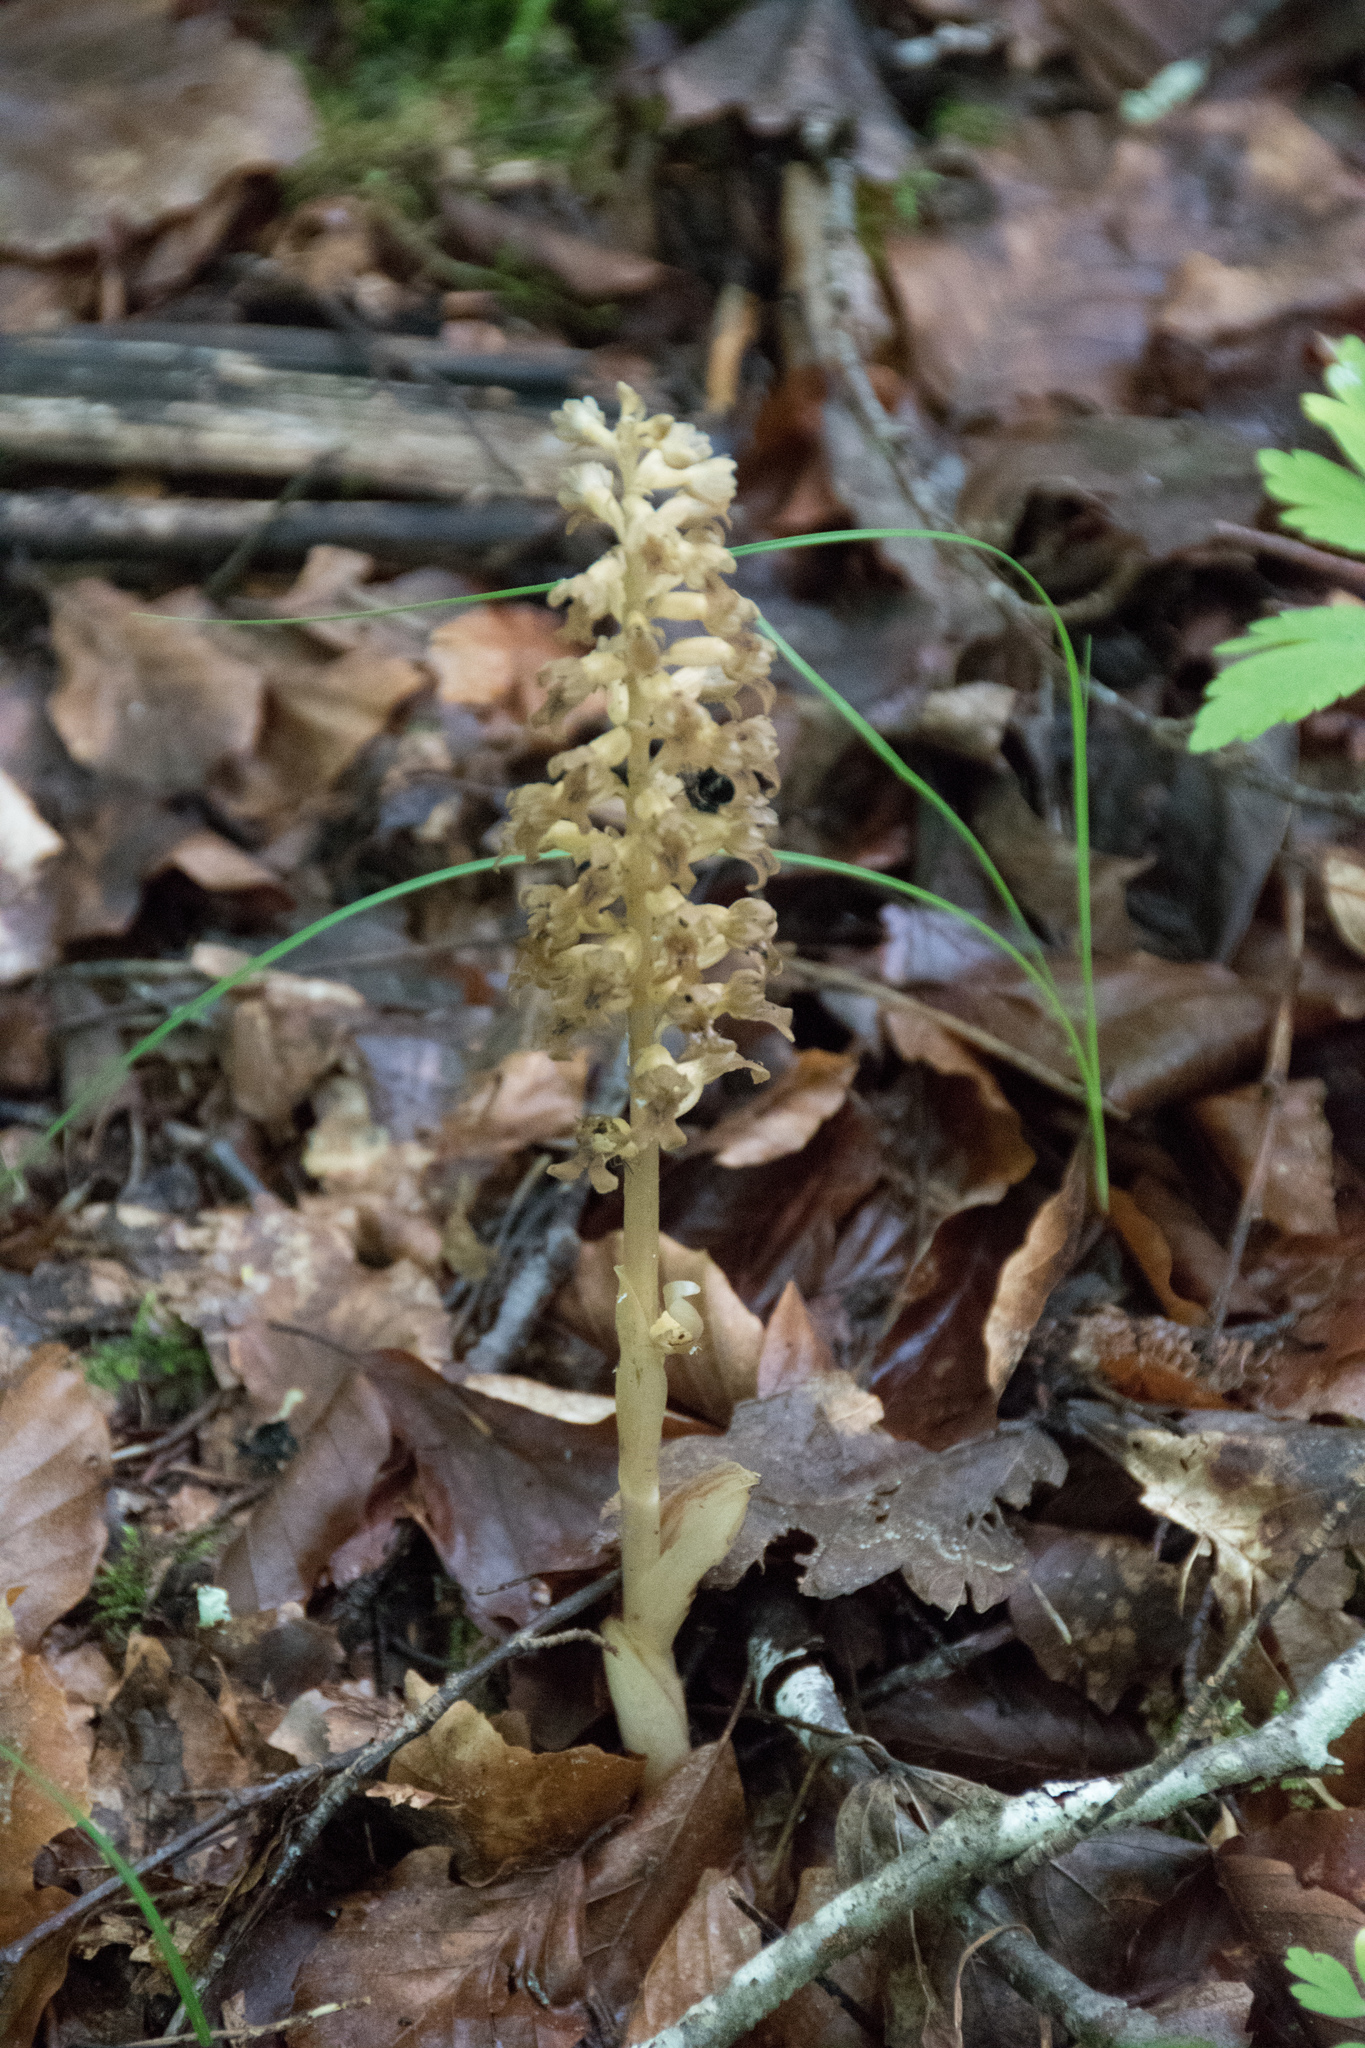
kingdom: Plantae
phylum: Tracheophyta
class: Liliopsida
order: Asparagales
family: Orchidaceae
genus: Neottia
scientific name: Neottia nidus-avis
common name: Bird's-nest orchid
